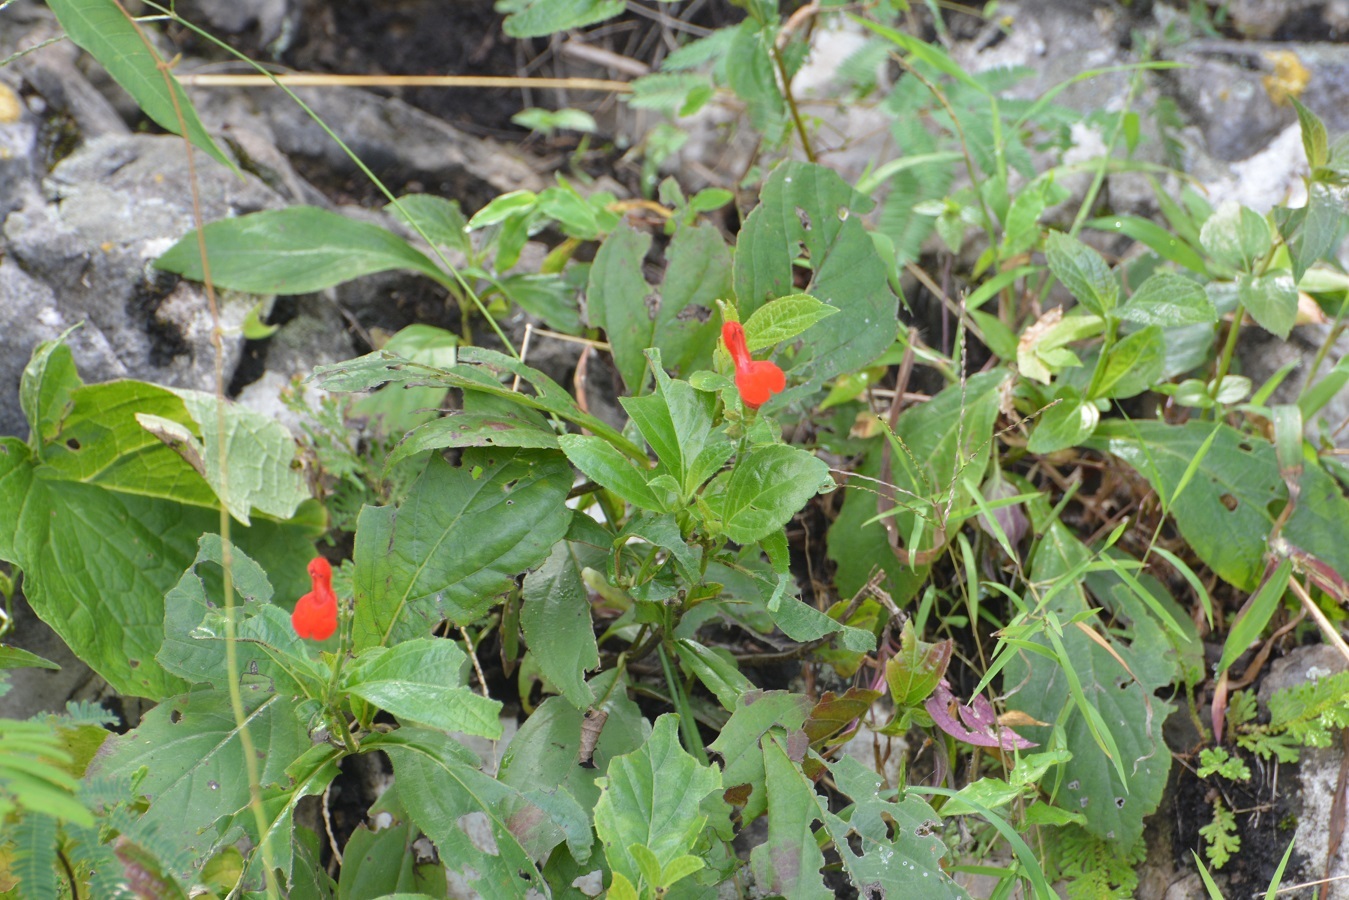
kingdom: Plantae
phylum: Tracheophyta
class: Magnoliopsida
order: Lamiales
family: Lamiaceae
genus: Salvia
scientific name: Salvia miniata
